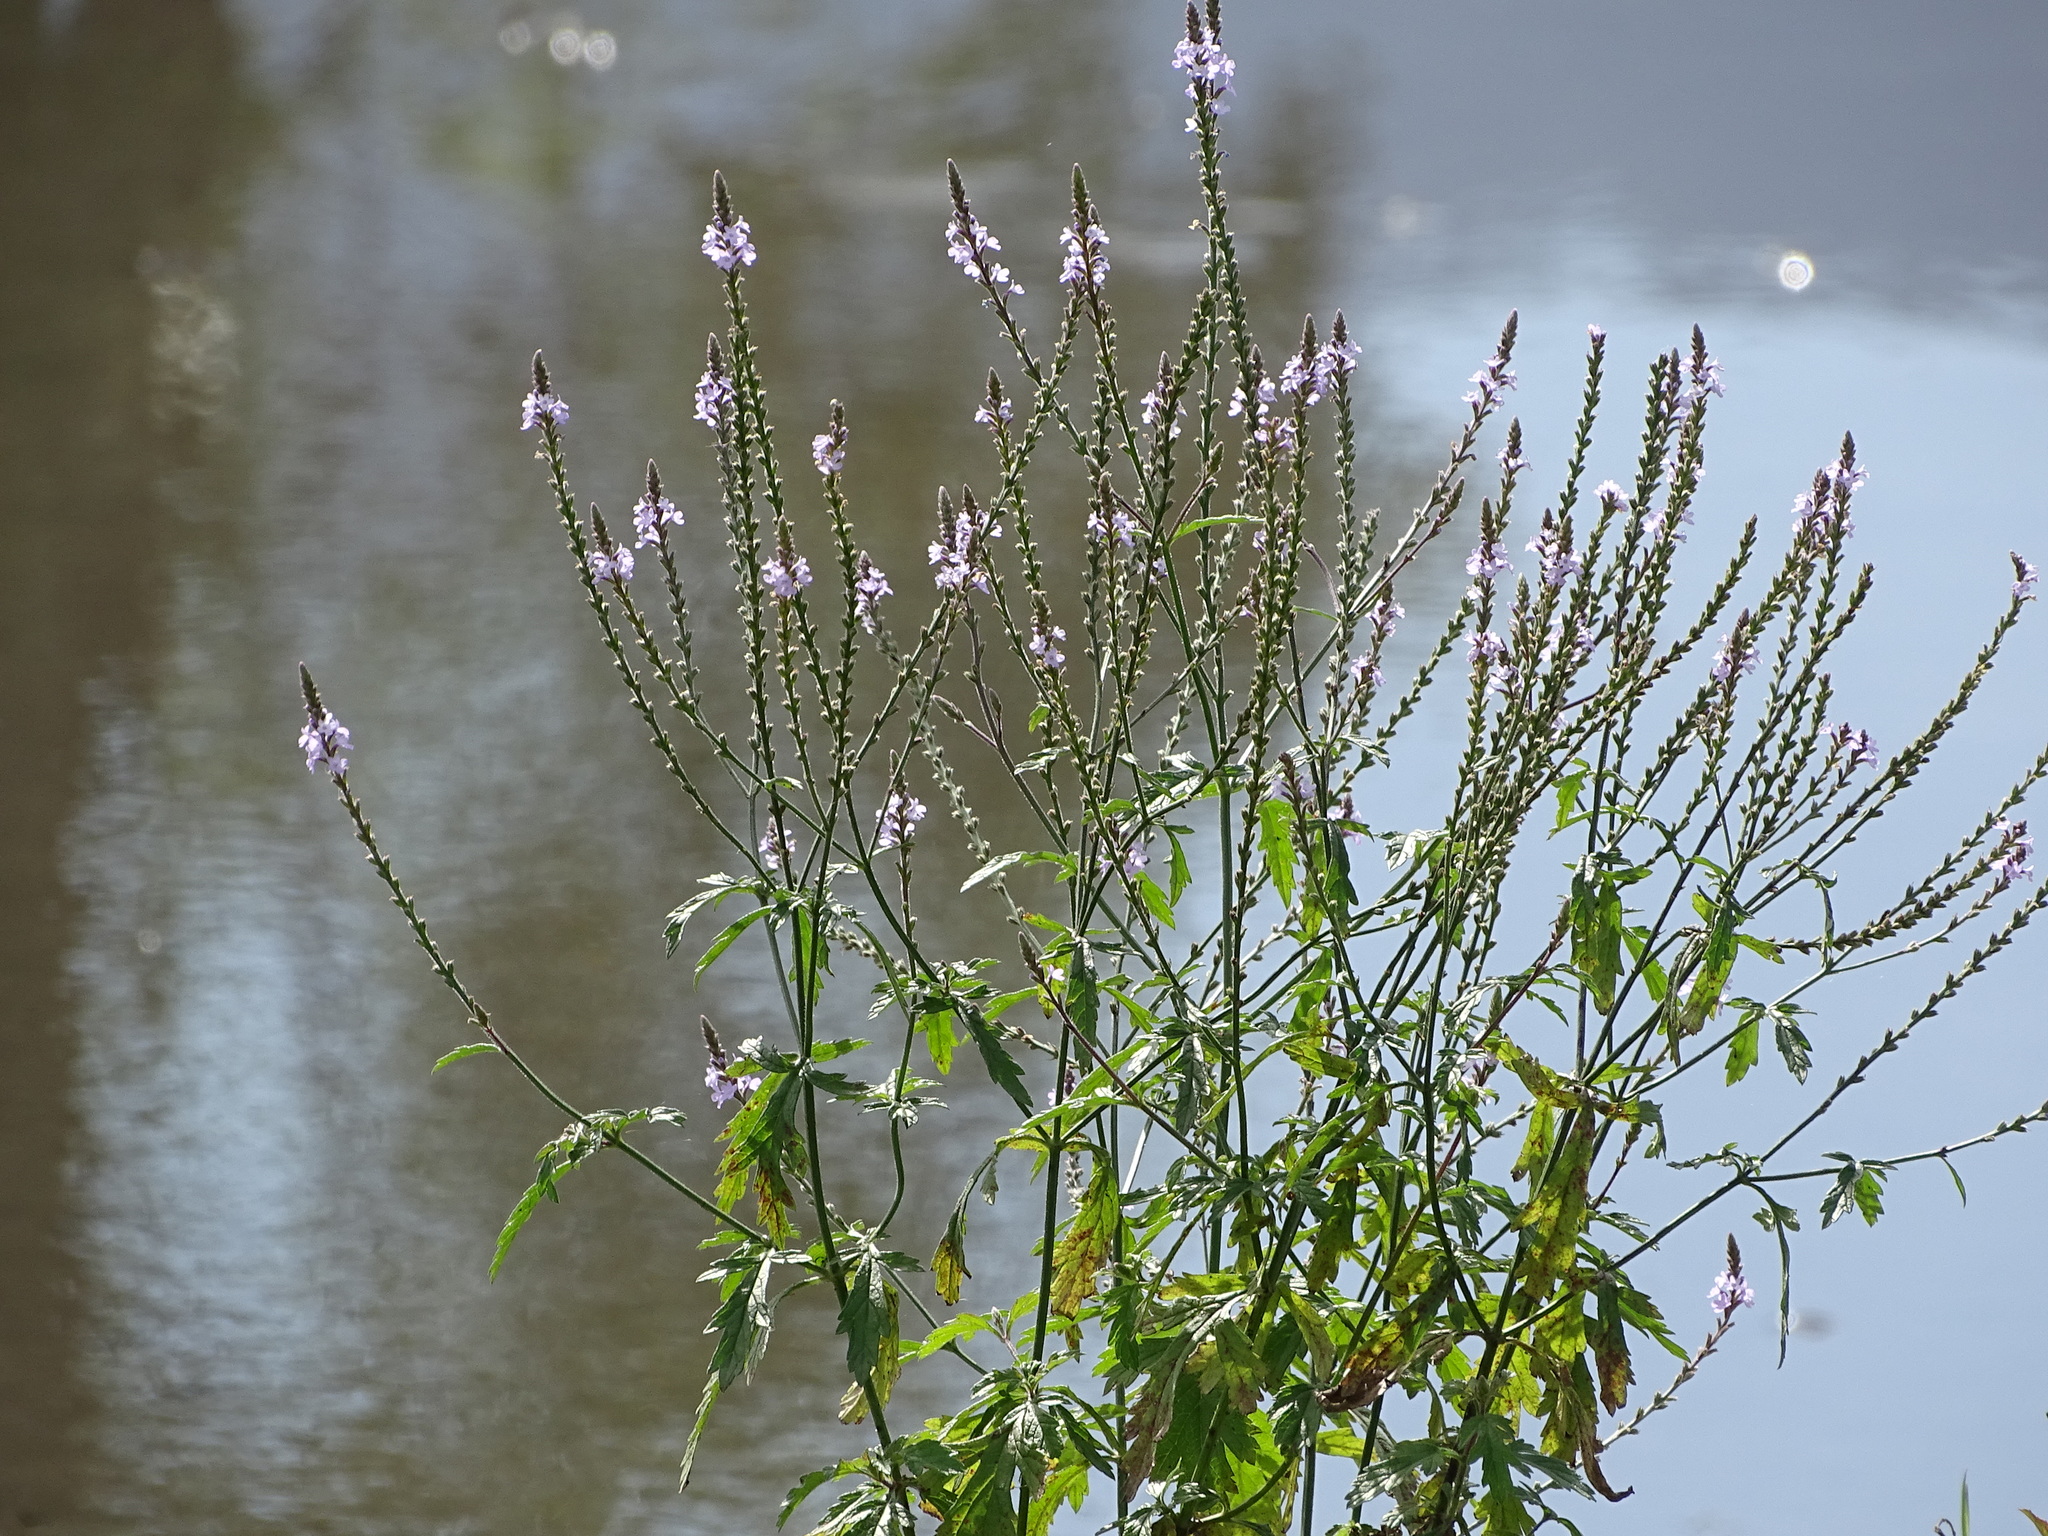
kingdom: Plantae
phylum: Tracheophyta
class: Magnoliopsida
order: Lamiales
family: Verbenaceae
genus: Verbena
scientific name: Verbena officinalis
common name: Vervain
